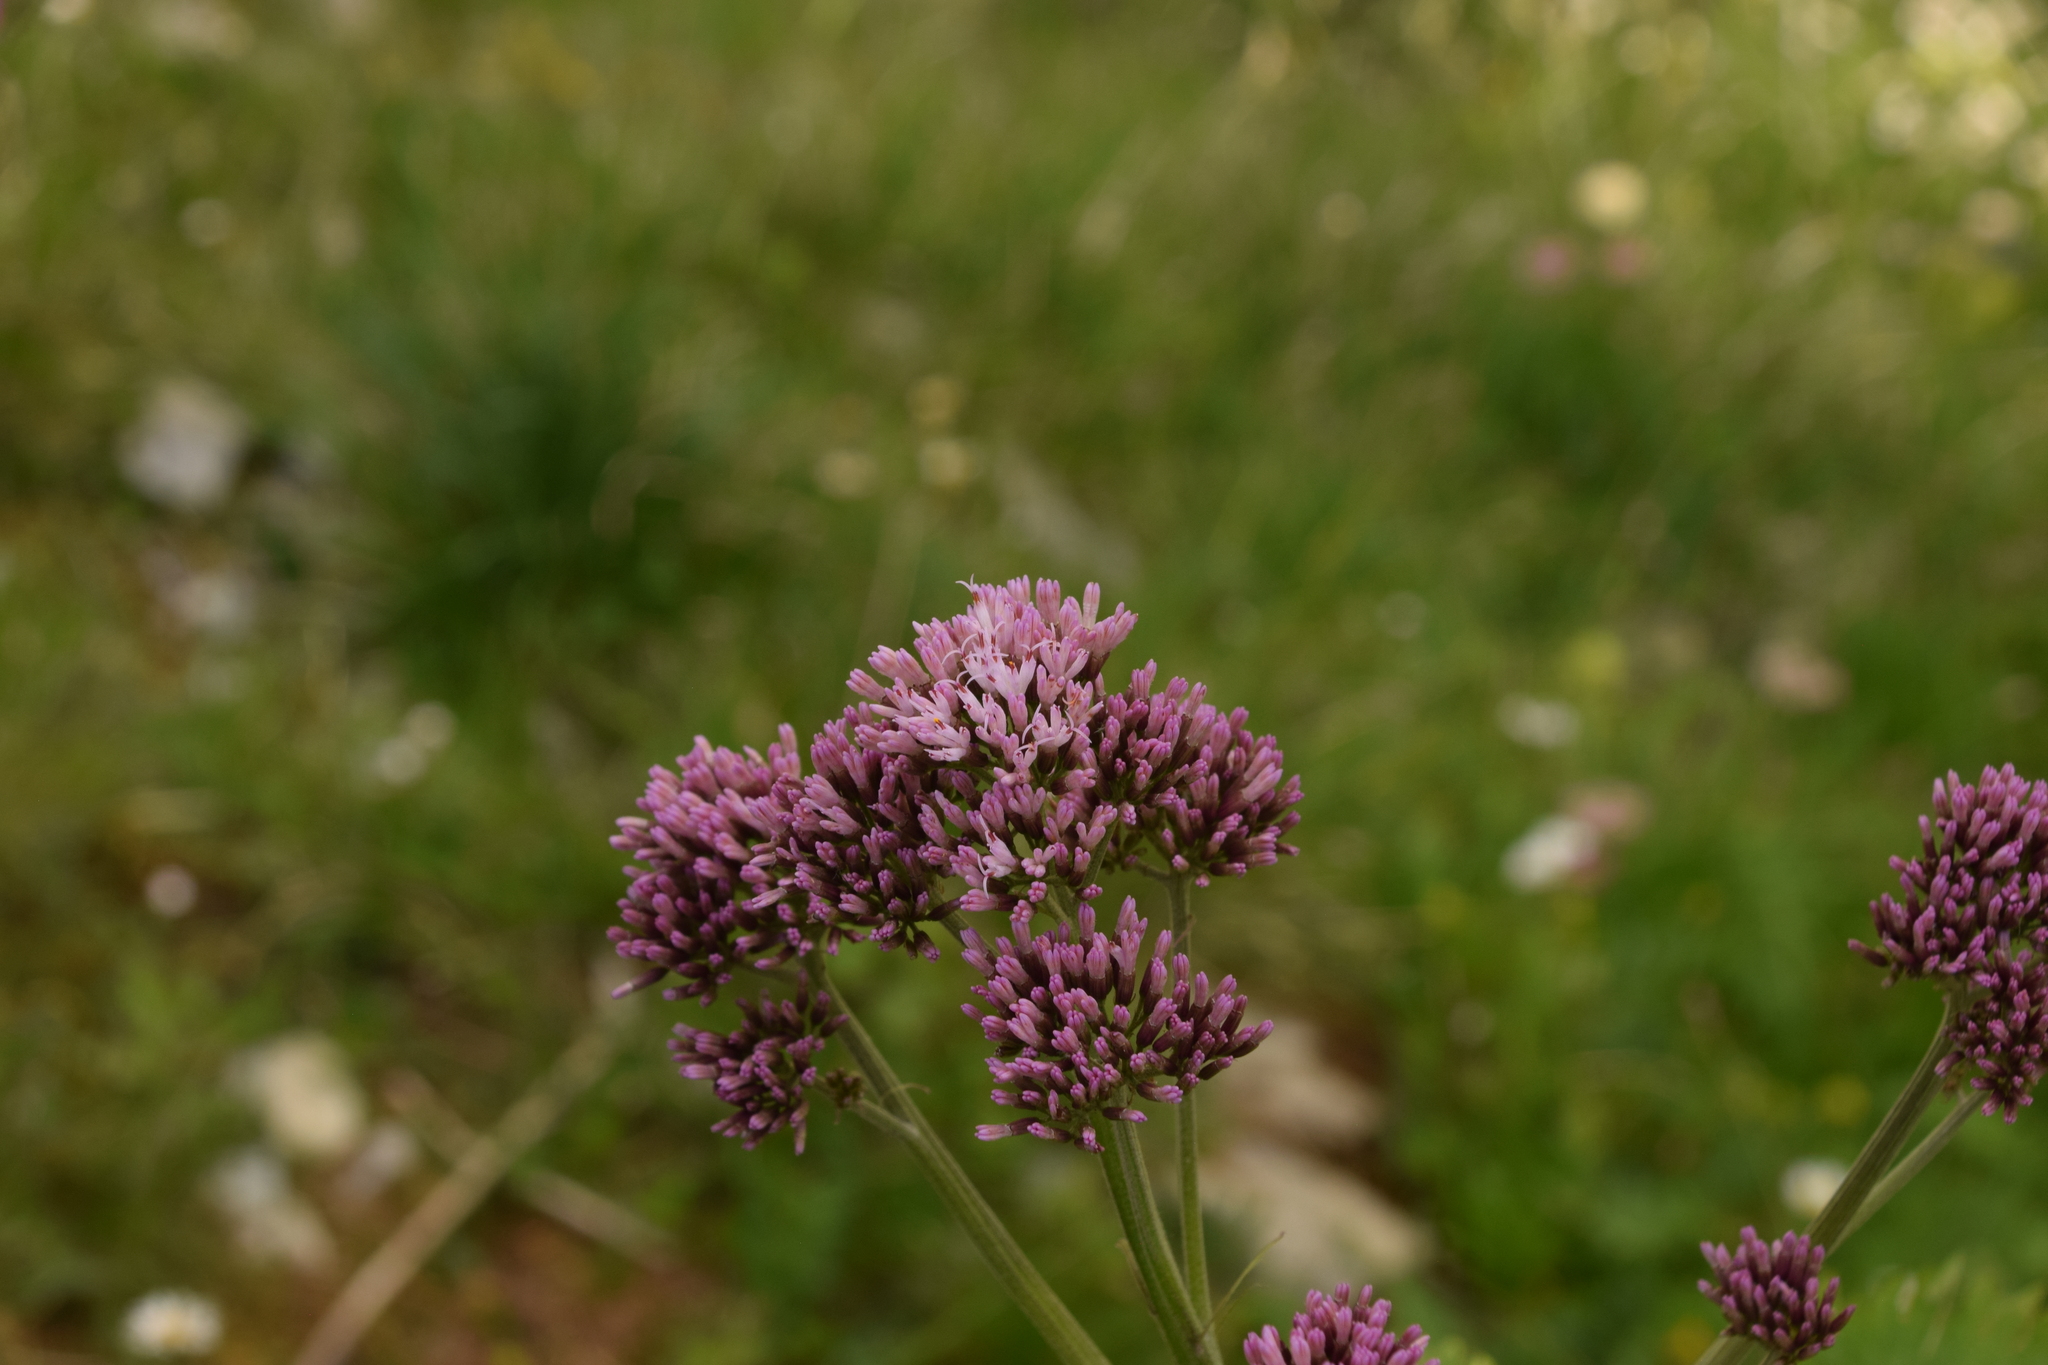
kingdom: Plantae
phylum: Tracheophyta
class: Magnoliopsida
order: Asterales
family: Asteraceae
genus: Adenostyles
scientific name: Adenostyles alliariae
